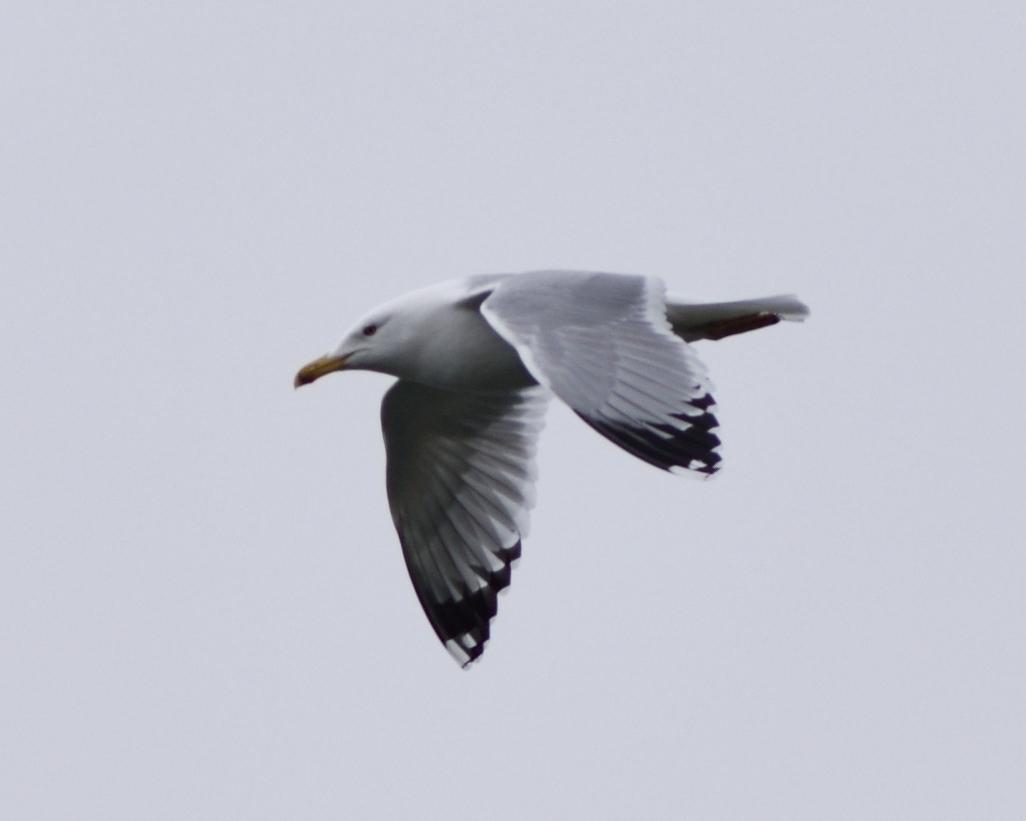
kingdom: Animalia
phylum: Chordata
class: Aves
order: Charadriiformes
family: Laridae
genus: Larus
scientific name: Larus cachinnans
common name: Caspian gull
